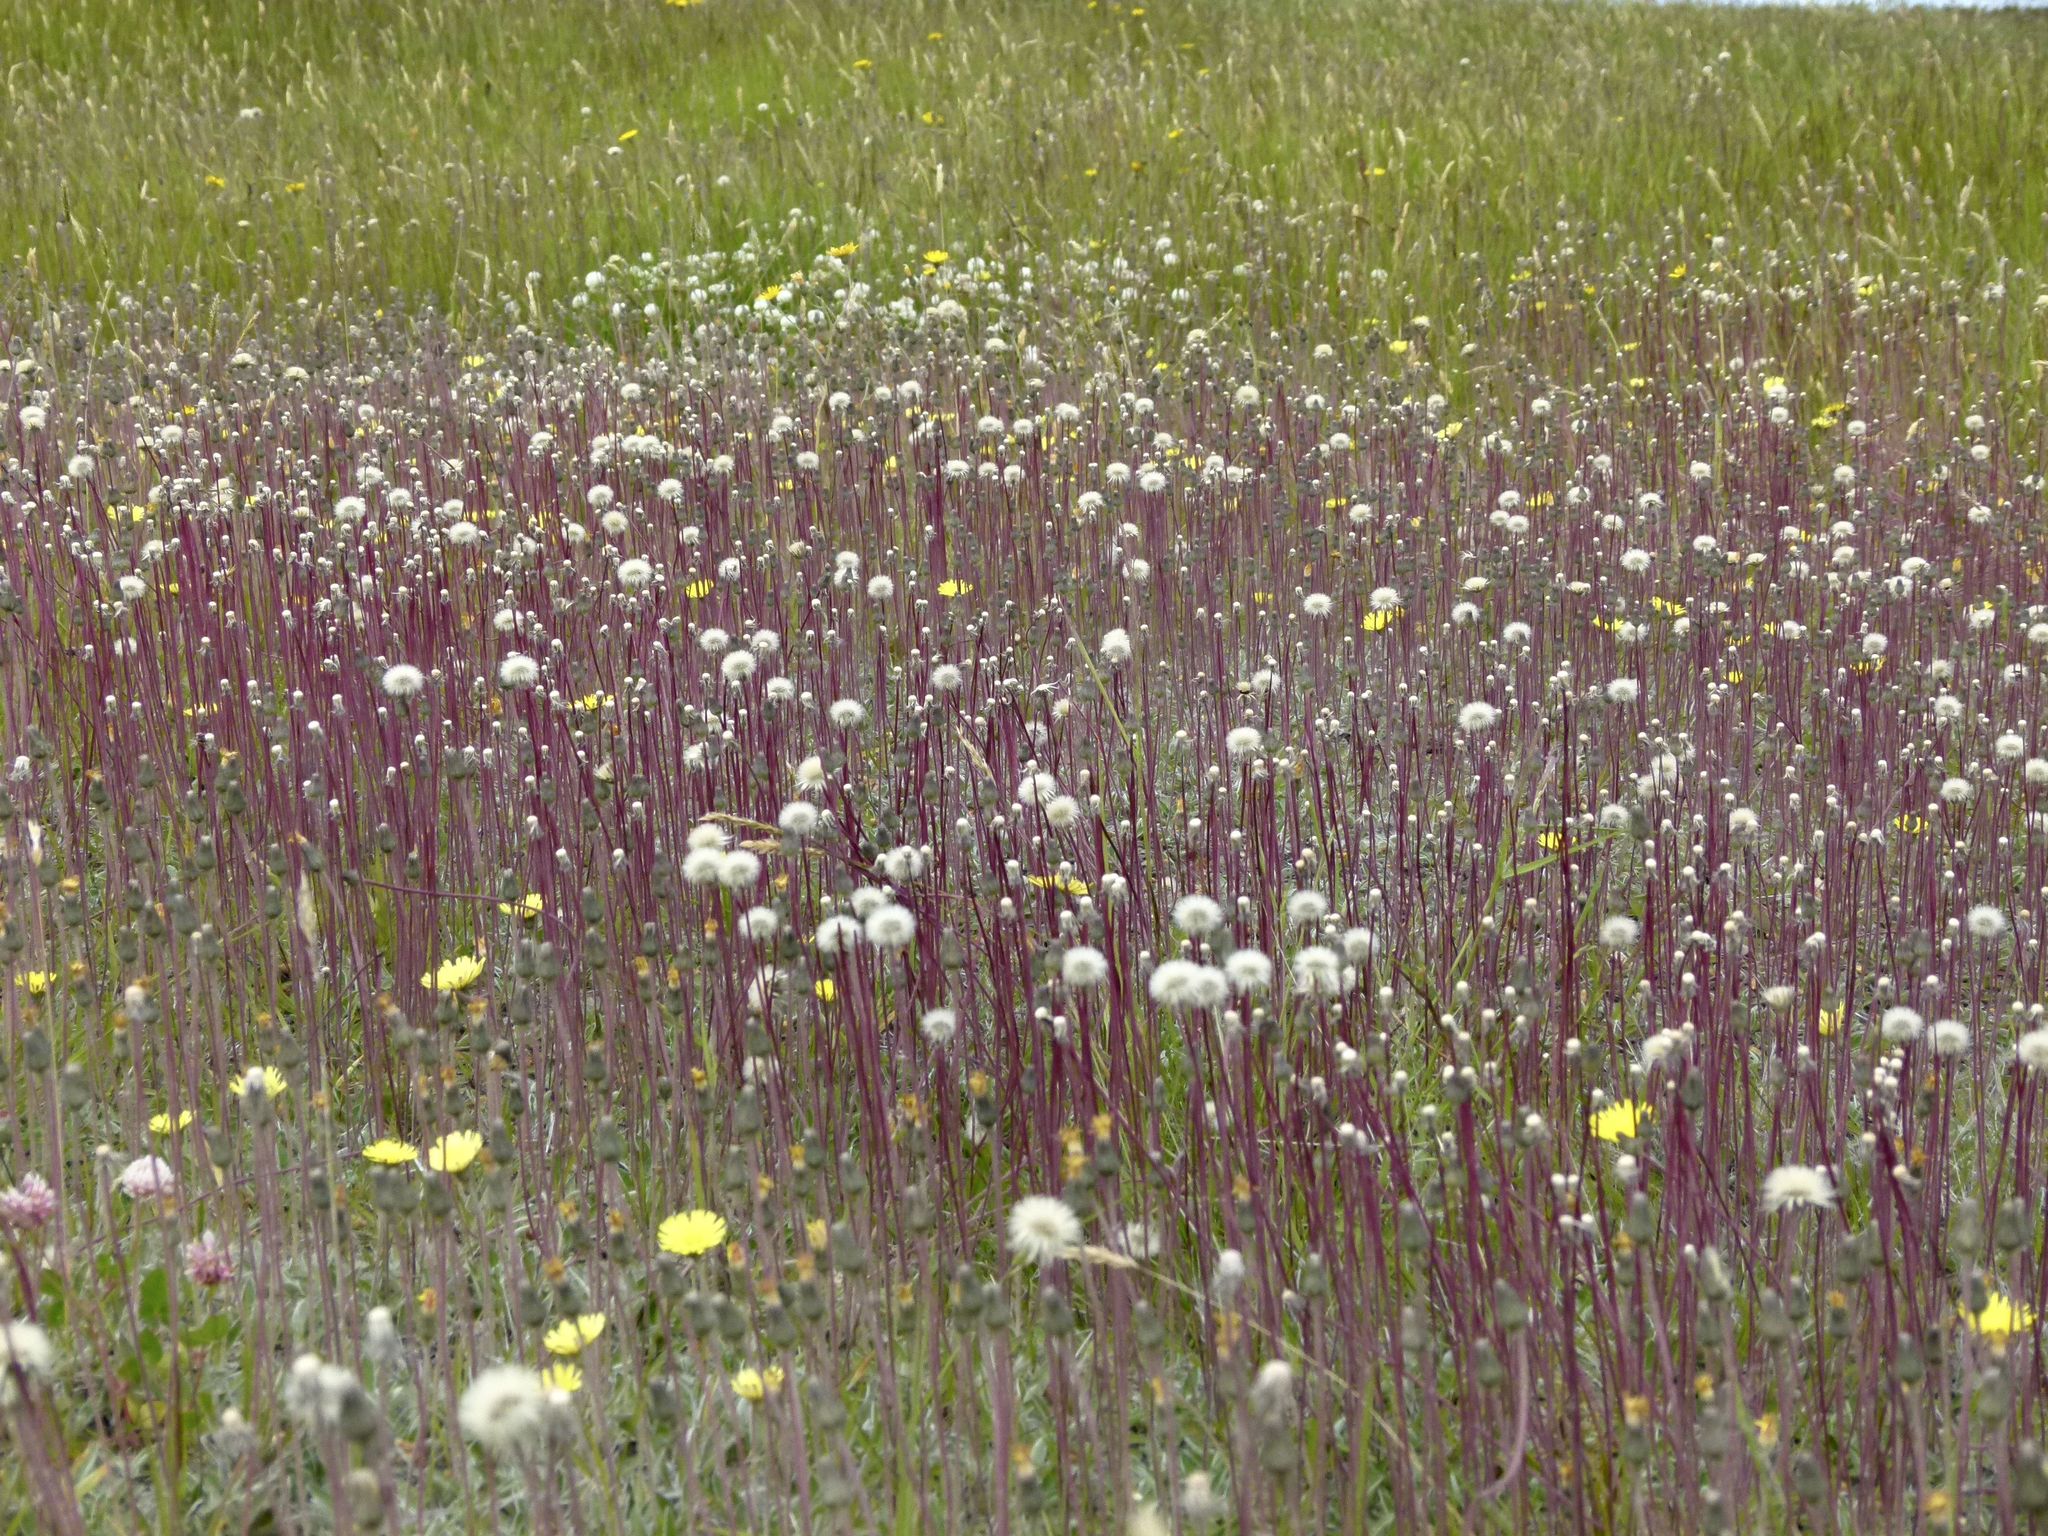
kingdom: Plantae
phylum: Tracheophyta
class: Liliopsida
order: Poales
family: Poaceae
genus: Agrostis
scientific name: Agrostis capillaris
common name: Colonial bentgrass
